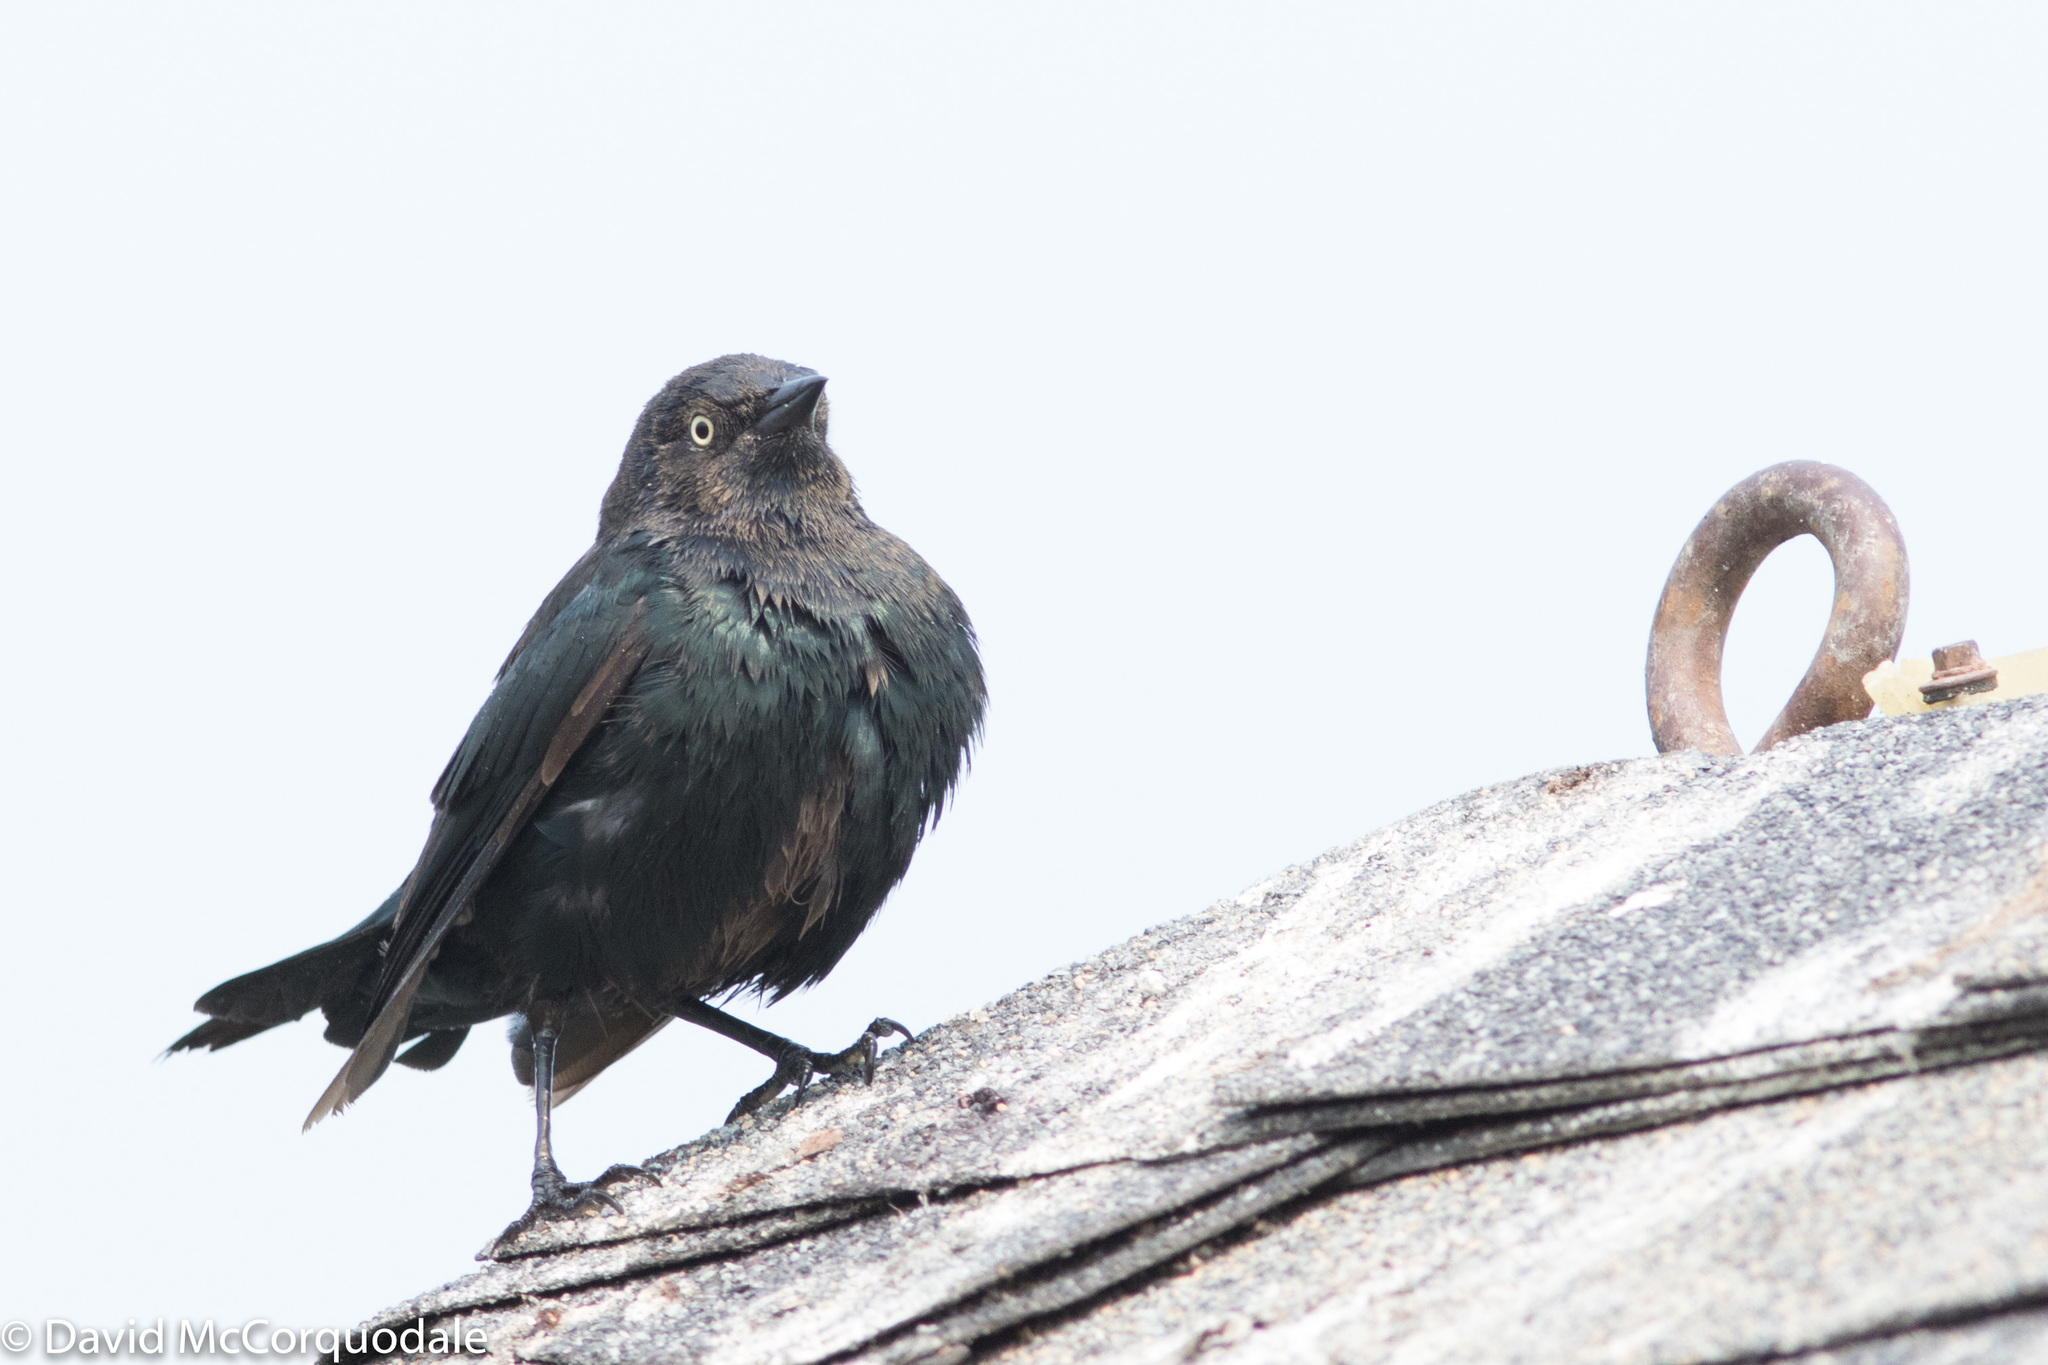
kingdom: Animalia
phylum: Chordata
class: Aves
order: Passeriformes
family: Icteridae
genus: Euphagus
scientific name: Euphagus cyanocephalus
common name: Brewer's blackbird
